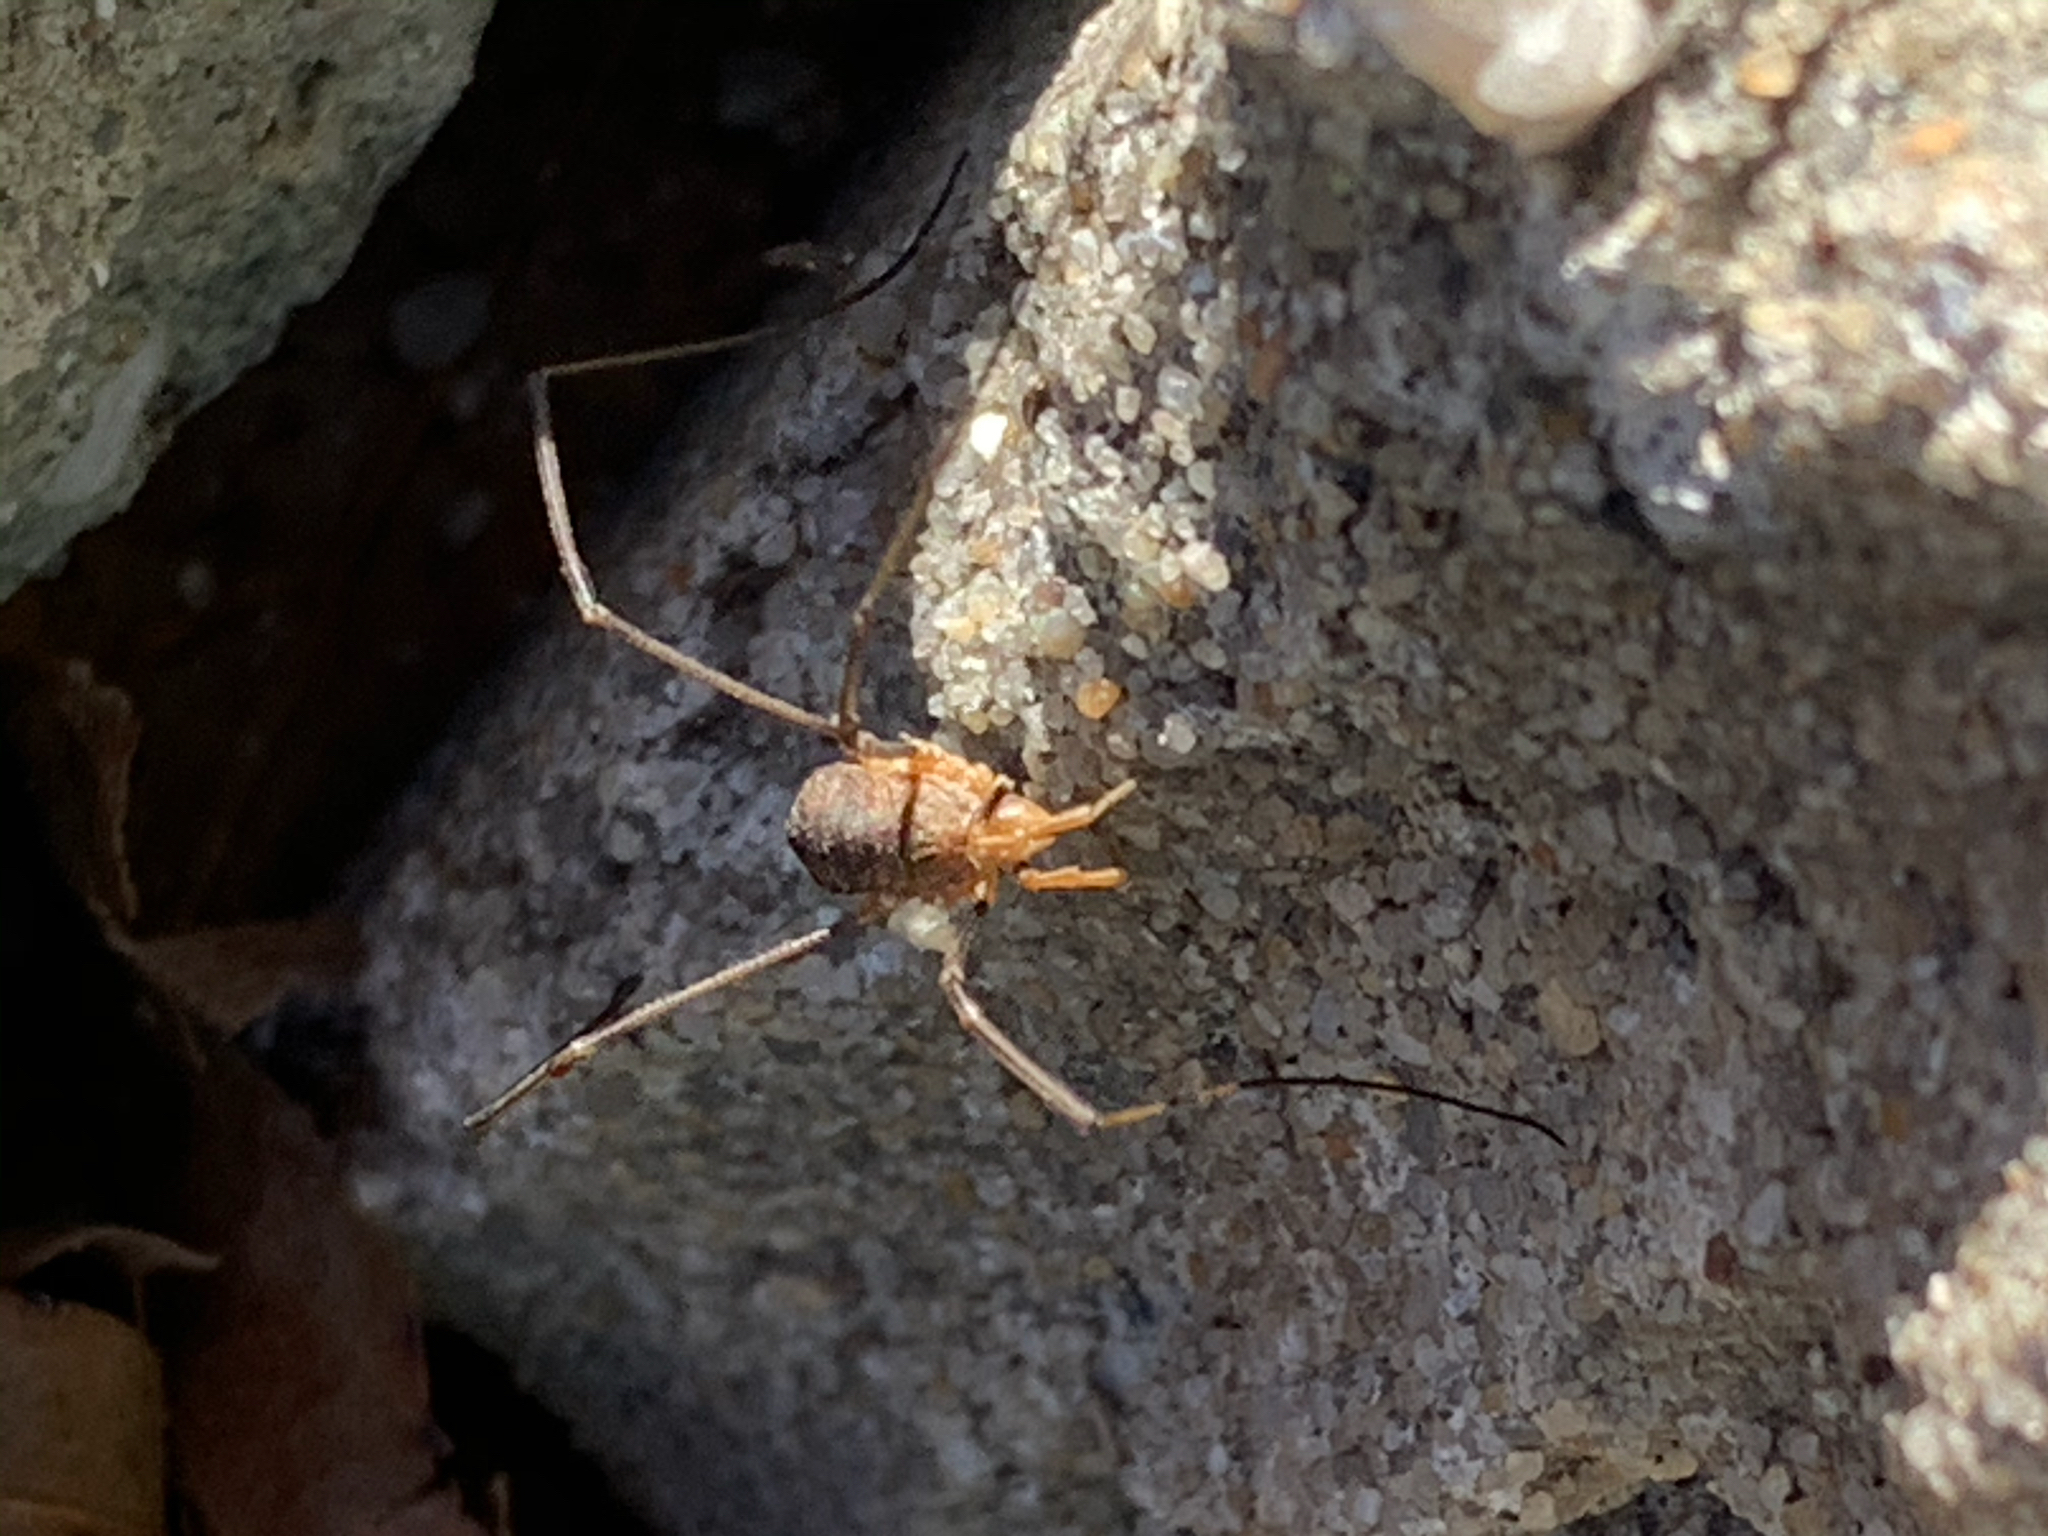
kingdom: Animalia
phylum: Arthropoda
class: Arachnida
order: Opiliones
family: Phalangiidae
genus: Phalangium
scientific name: Phalangium opilio
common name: Daddy longleg
